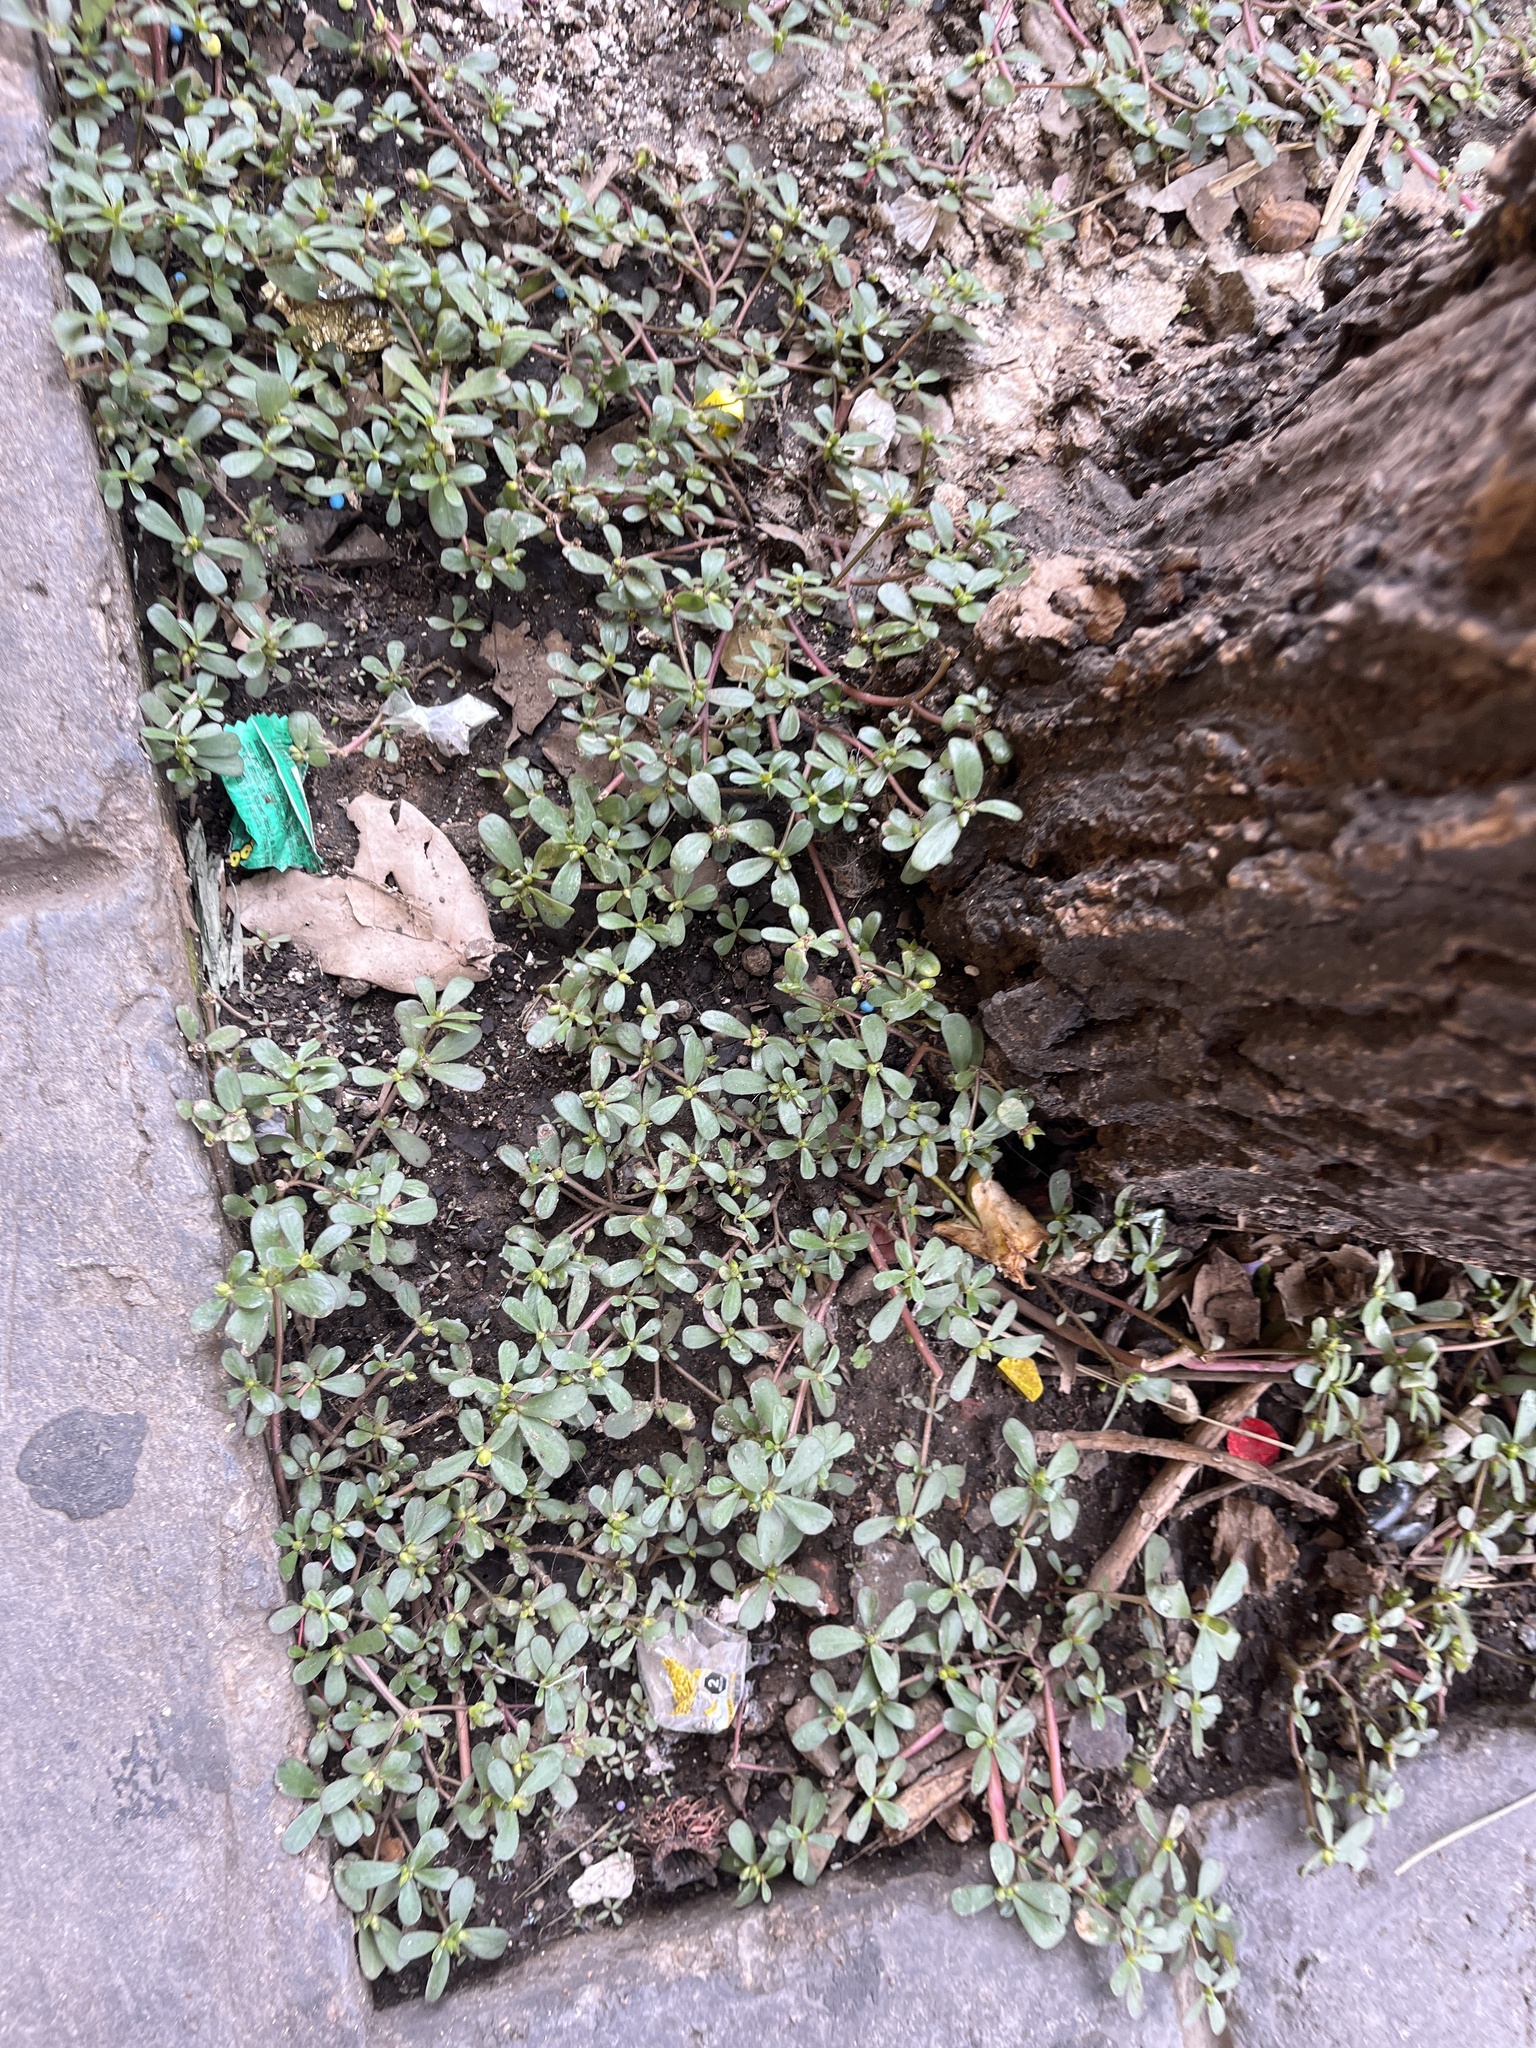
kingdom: Plantae
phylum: Tracheophyta
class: Magnoliopsida
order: Caryophyllales
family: Portulacaceae
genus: Portulaca
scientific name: Portulaca oleracea
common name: Common purslane
